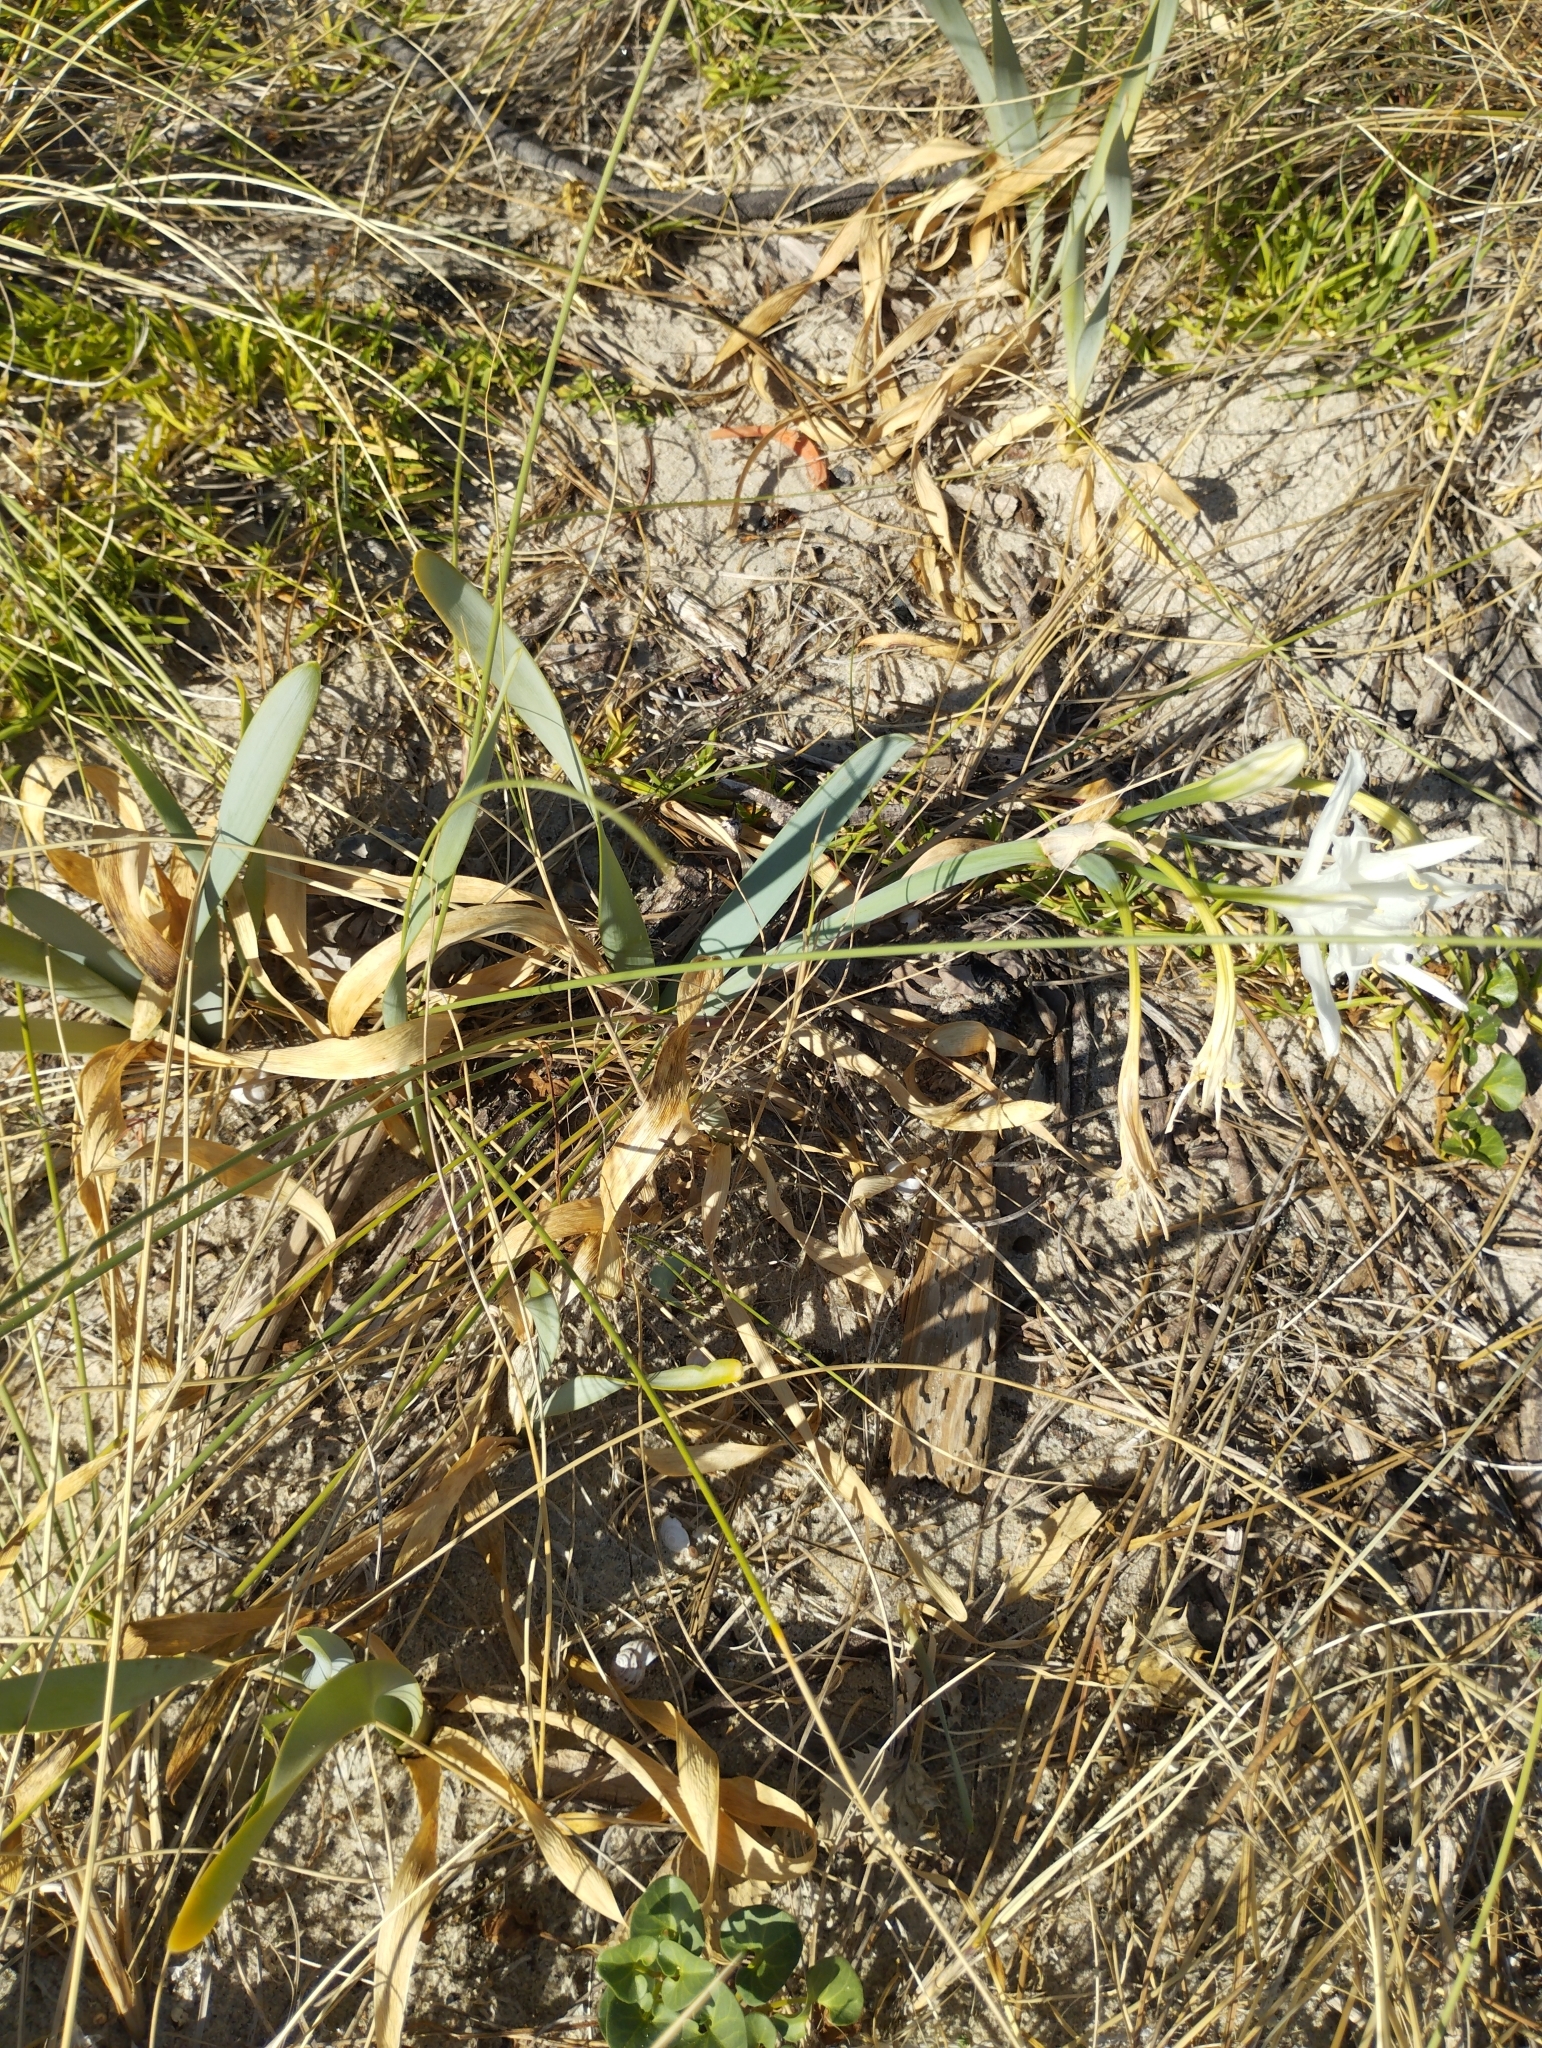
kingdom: Plantae
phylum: Tracheophyta
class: Liliopsida
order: Asparagales
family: Amaryllidaceae
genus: Pancratium
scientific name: Pancratium maritimum
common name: Sea-daffodil
